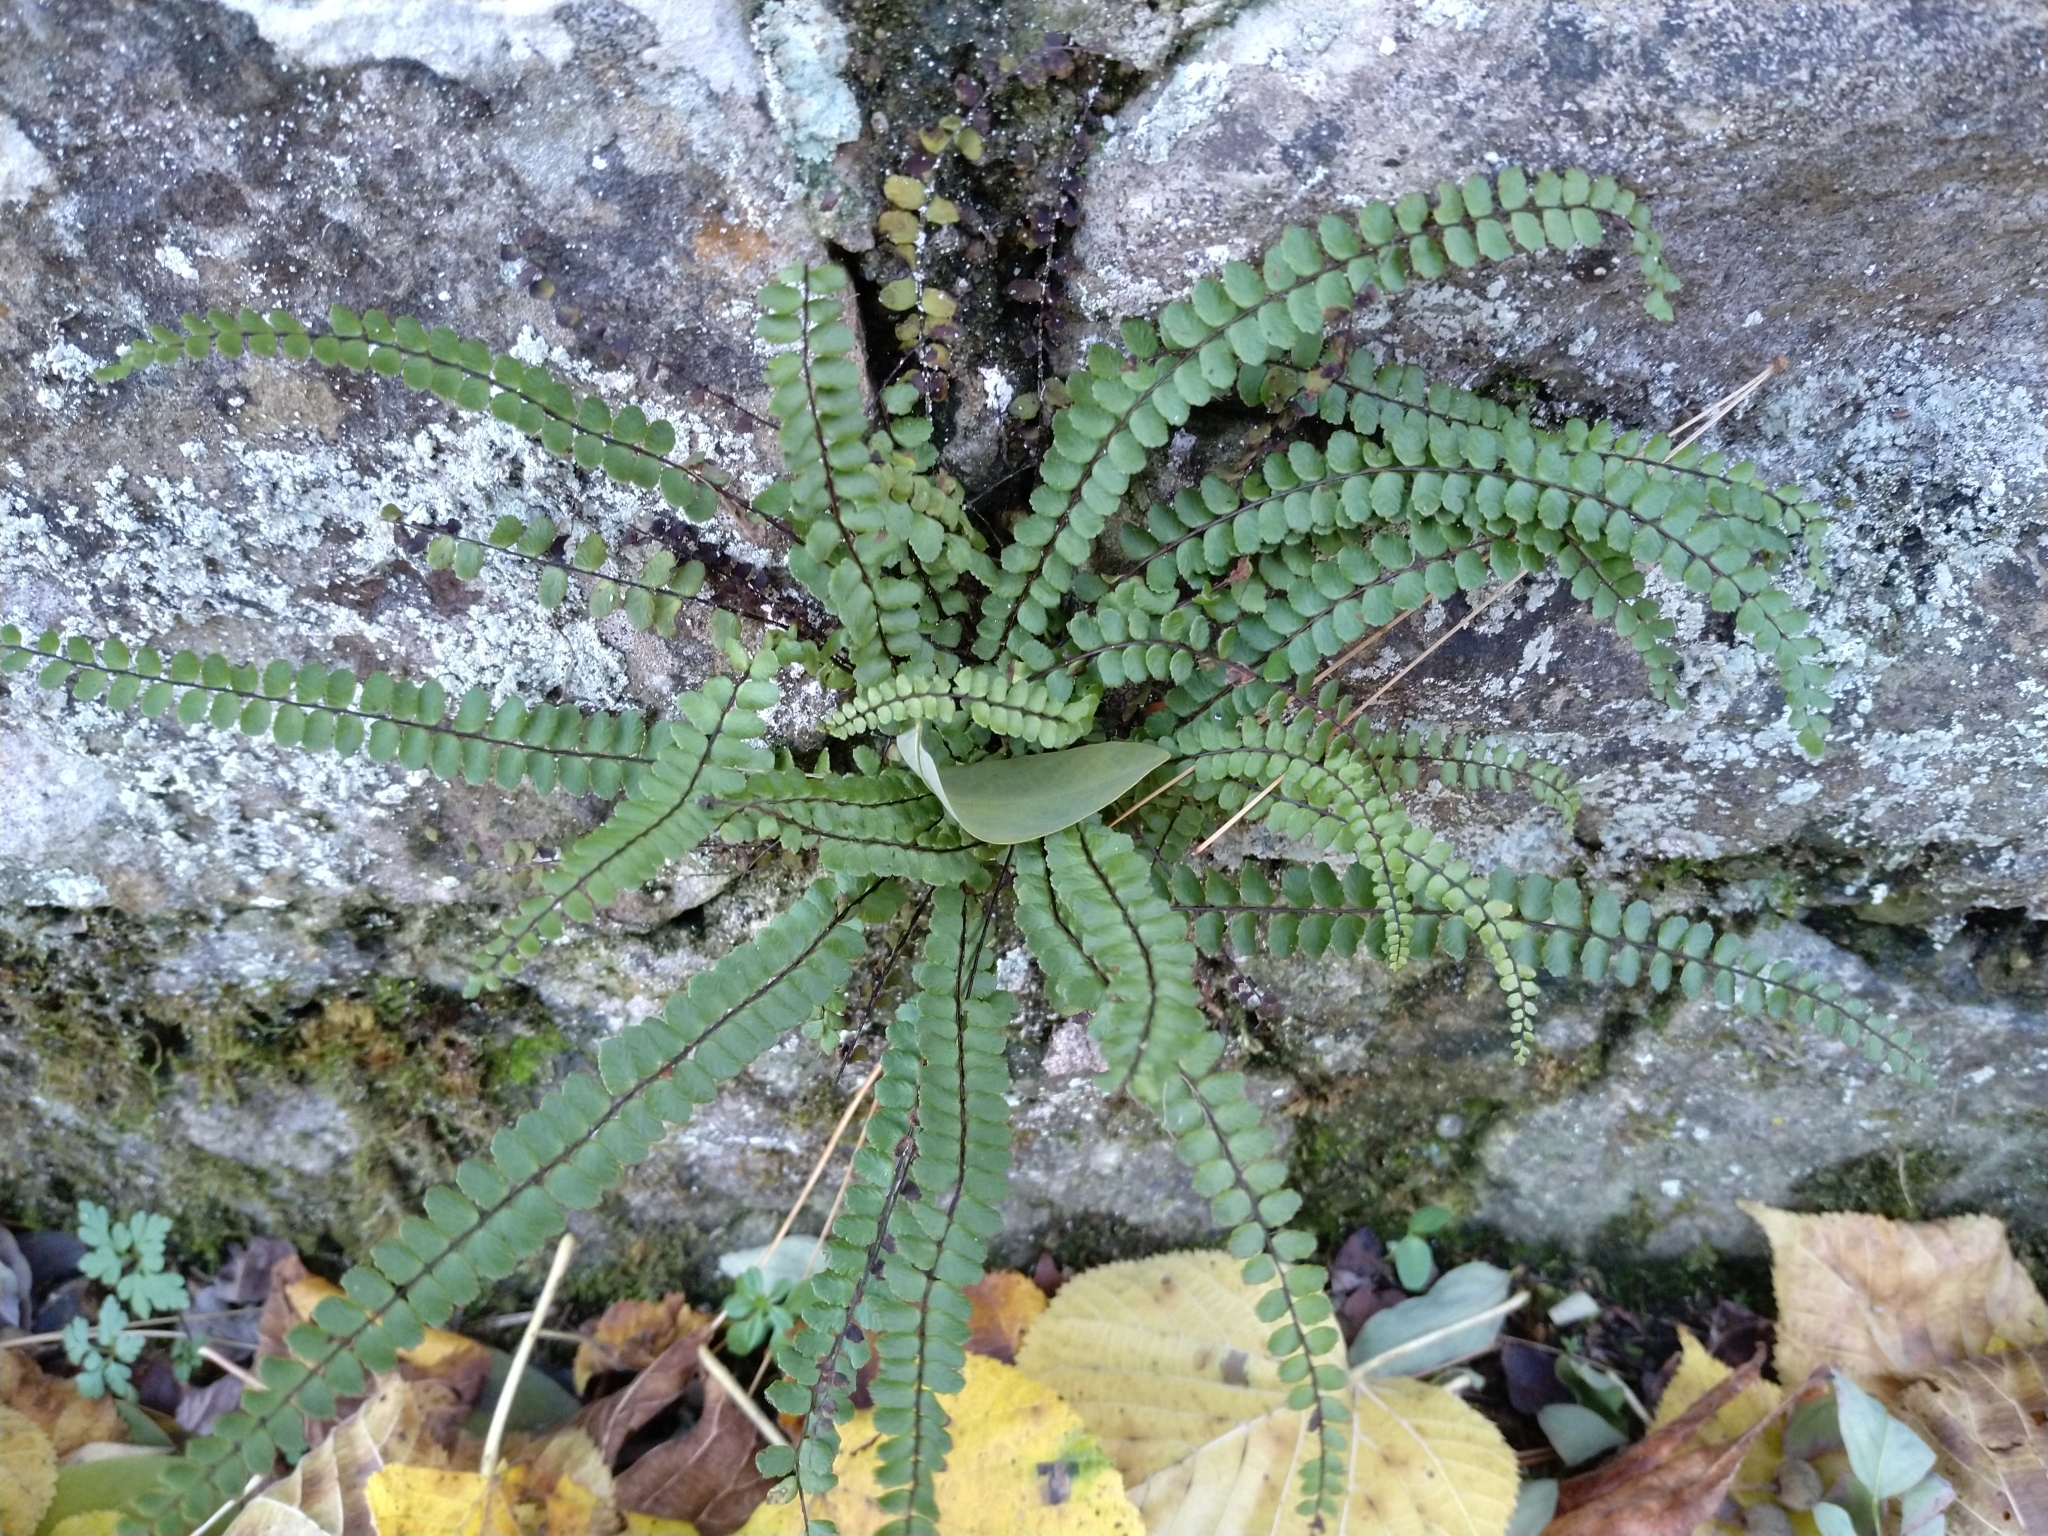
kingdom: Plantae
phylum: Tracheophyta
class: Polypodiopsida
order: Polypodiales
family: Aspleniaceae
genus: Asplenium
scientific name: Asplenium trichomanes
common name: Maidenhair spleenwort
